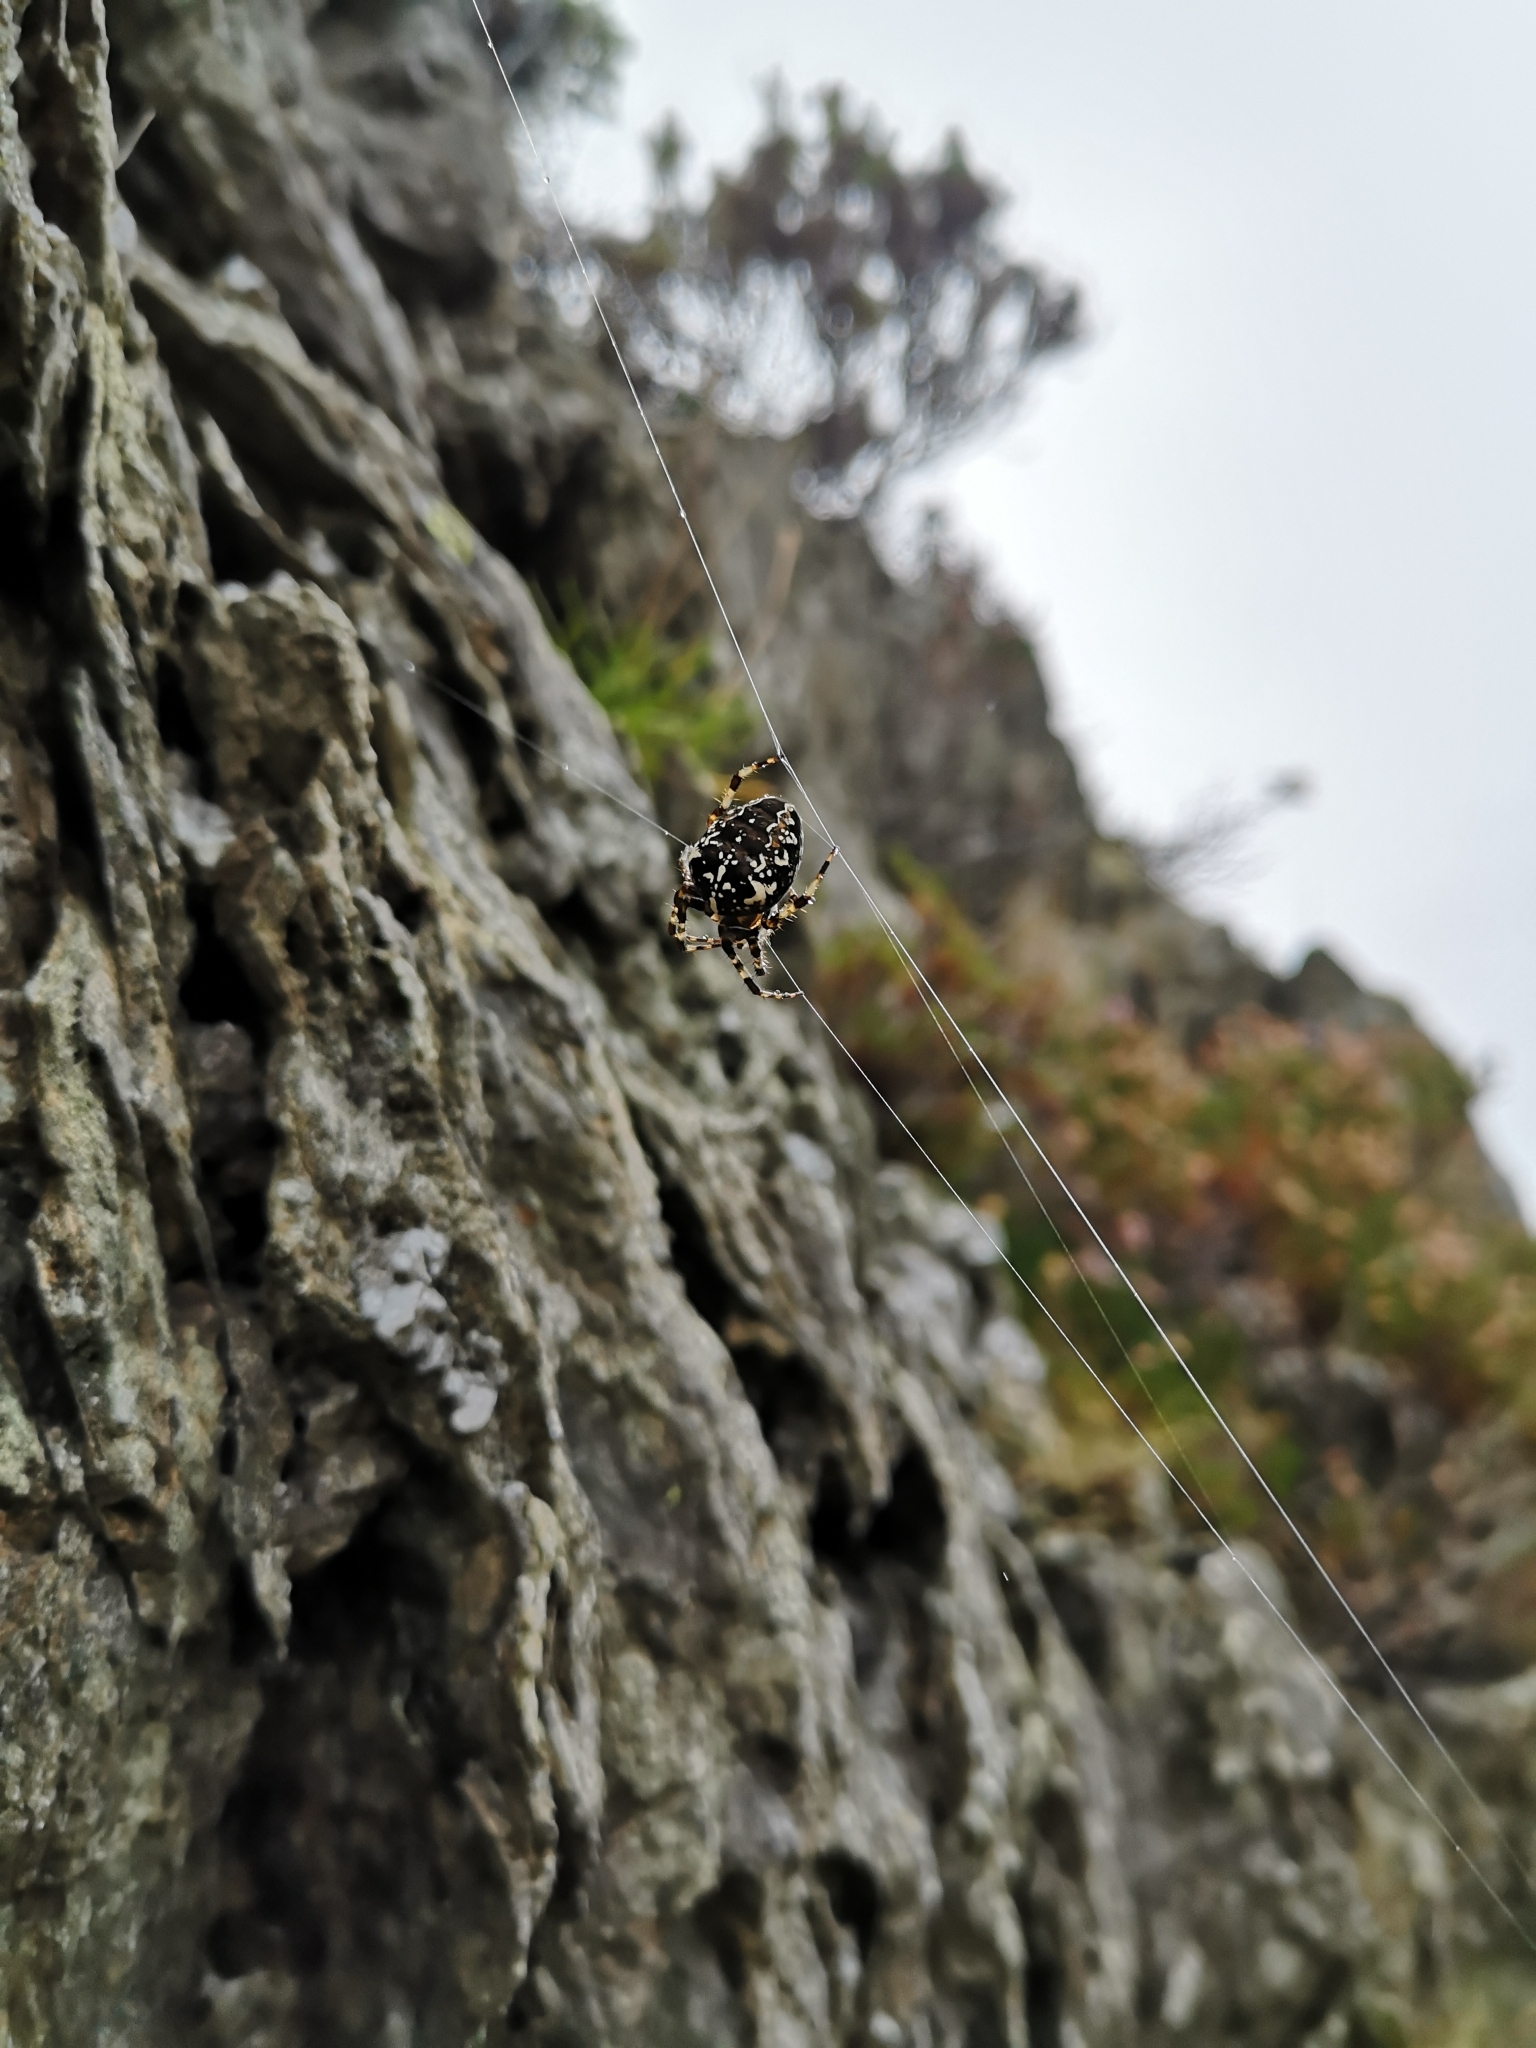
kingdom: Animalia
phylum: Arthropoda
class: Arachnida
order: Araneae
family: Araneidae
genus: Araneus
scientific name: Araneus diadematus
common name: Cross orbweaver
